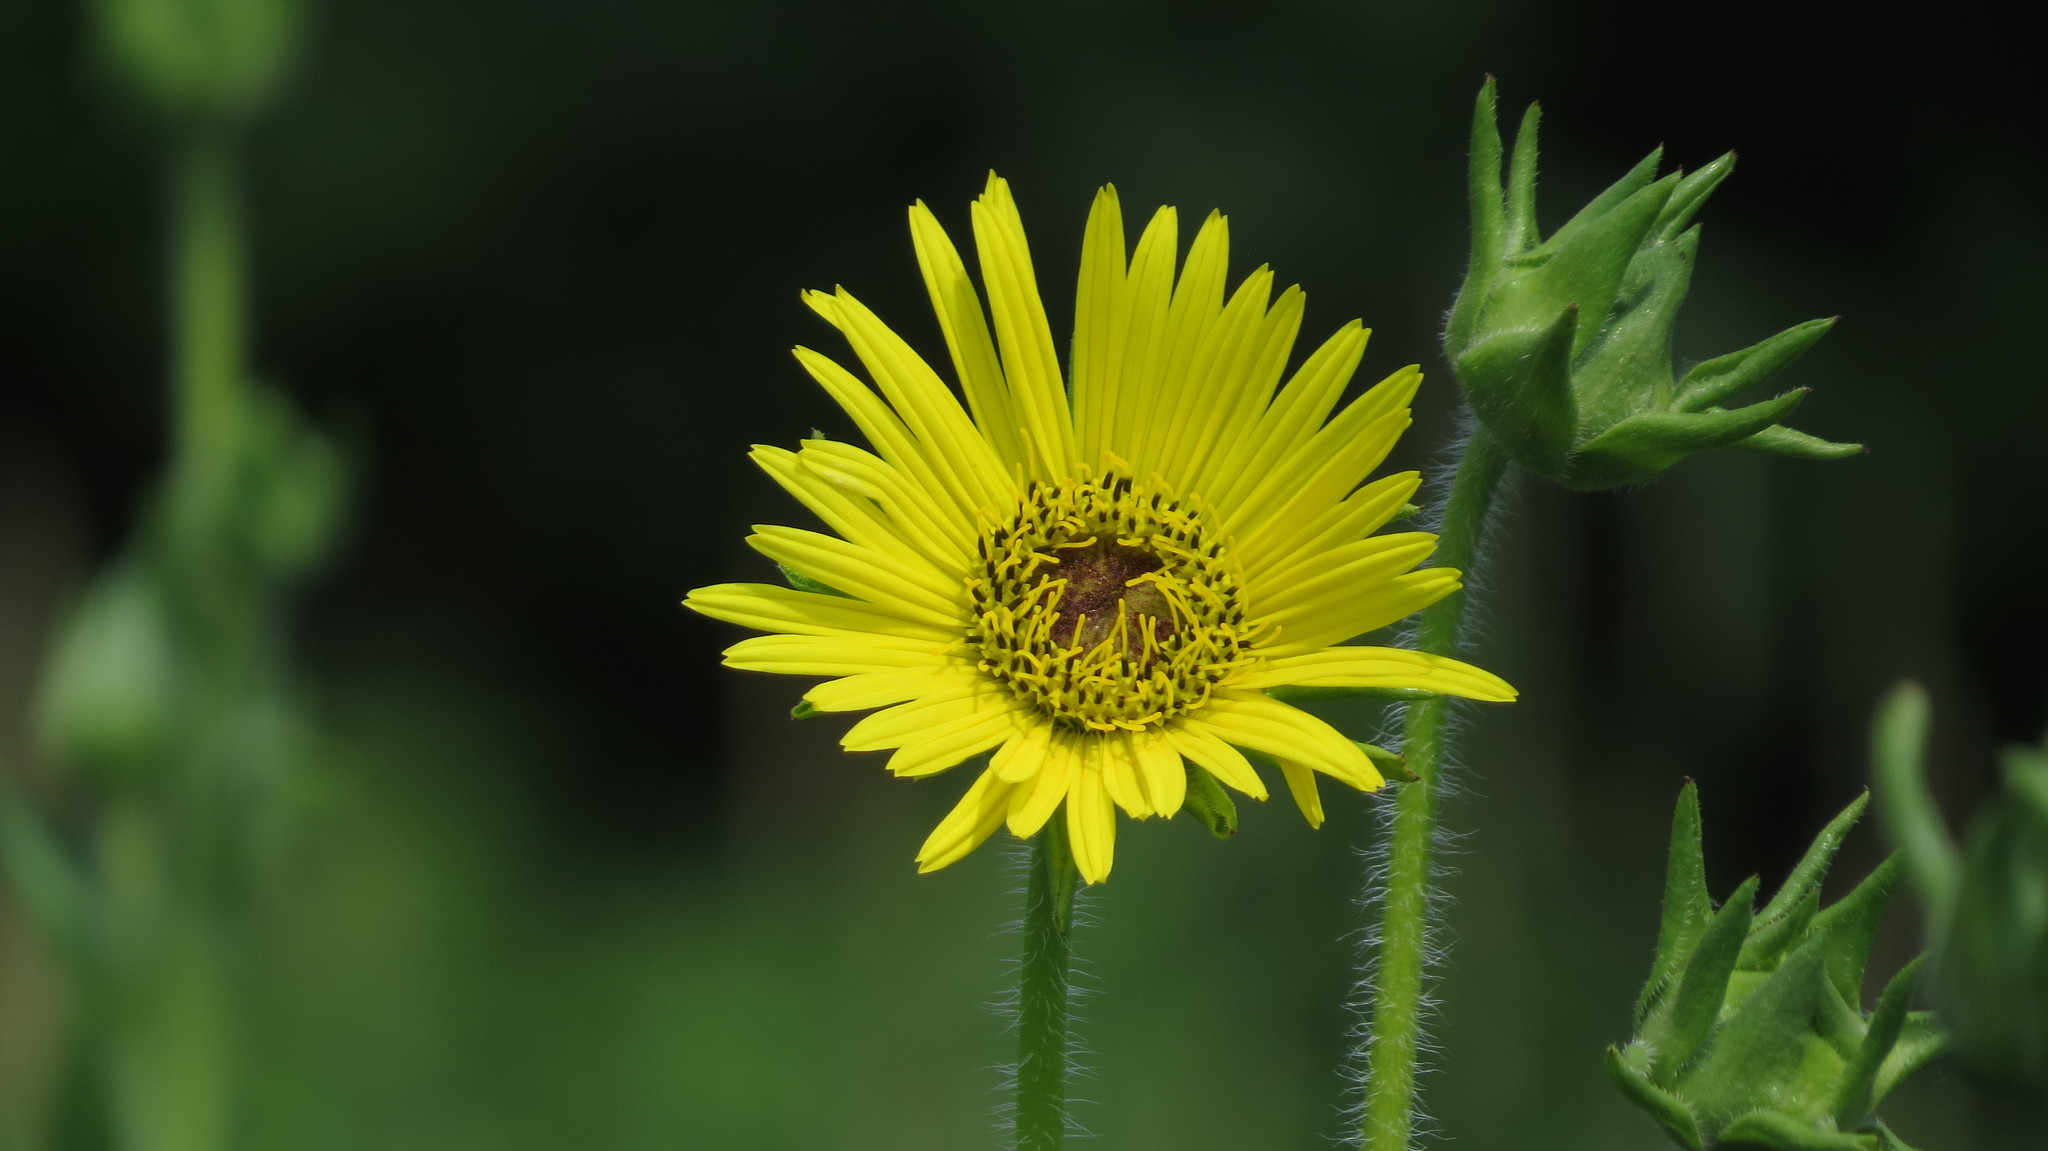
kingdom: Plantae
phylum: Tracheophyta
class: Magnoliopsida
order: Asterales
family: Asteraceae
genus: Silphium
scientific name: Silphium laciniatum
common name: Polarplant
